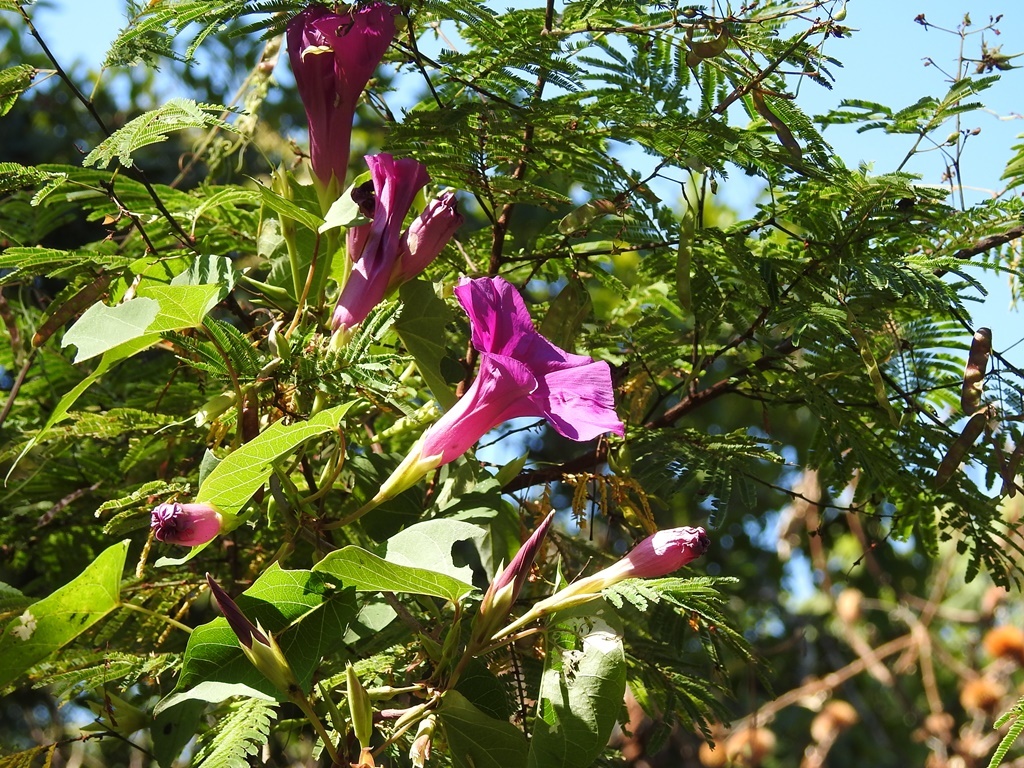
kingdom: Plantae
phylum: Tracheophyta
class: Magnoliopsida
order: Solanales
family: Convolvulaceae
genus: Ipomoea
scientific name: Ipomoea bernoulliana
